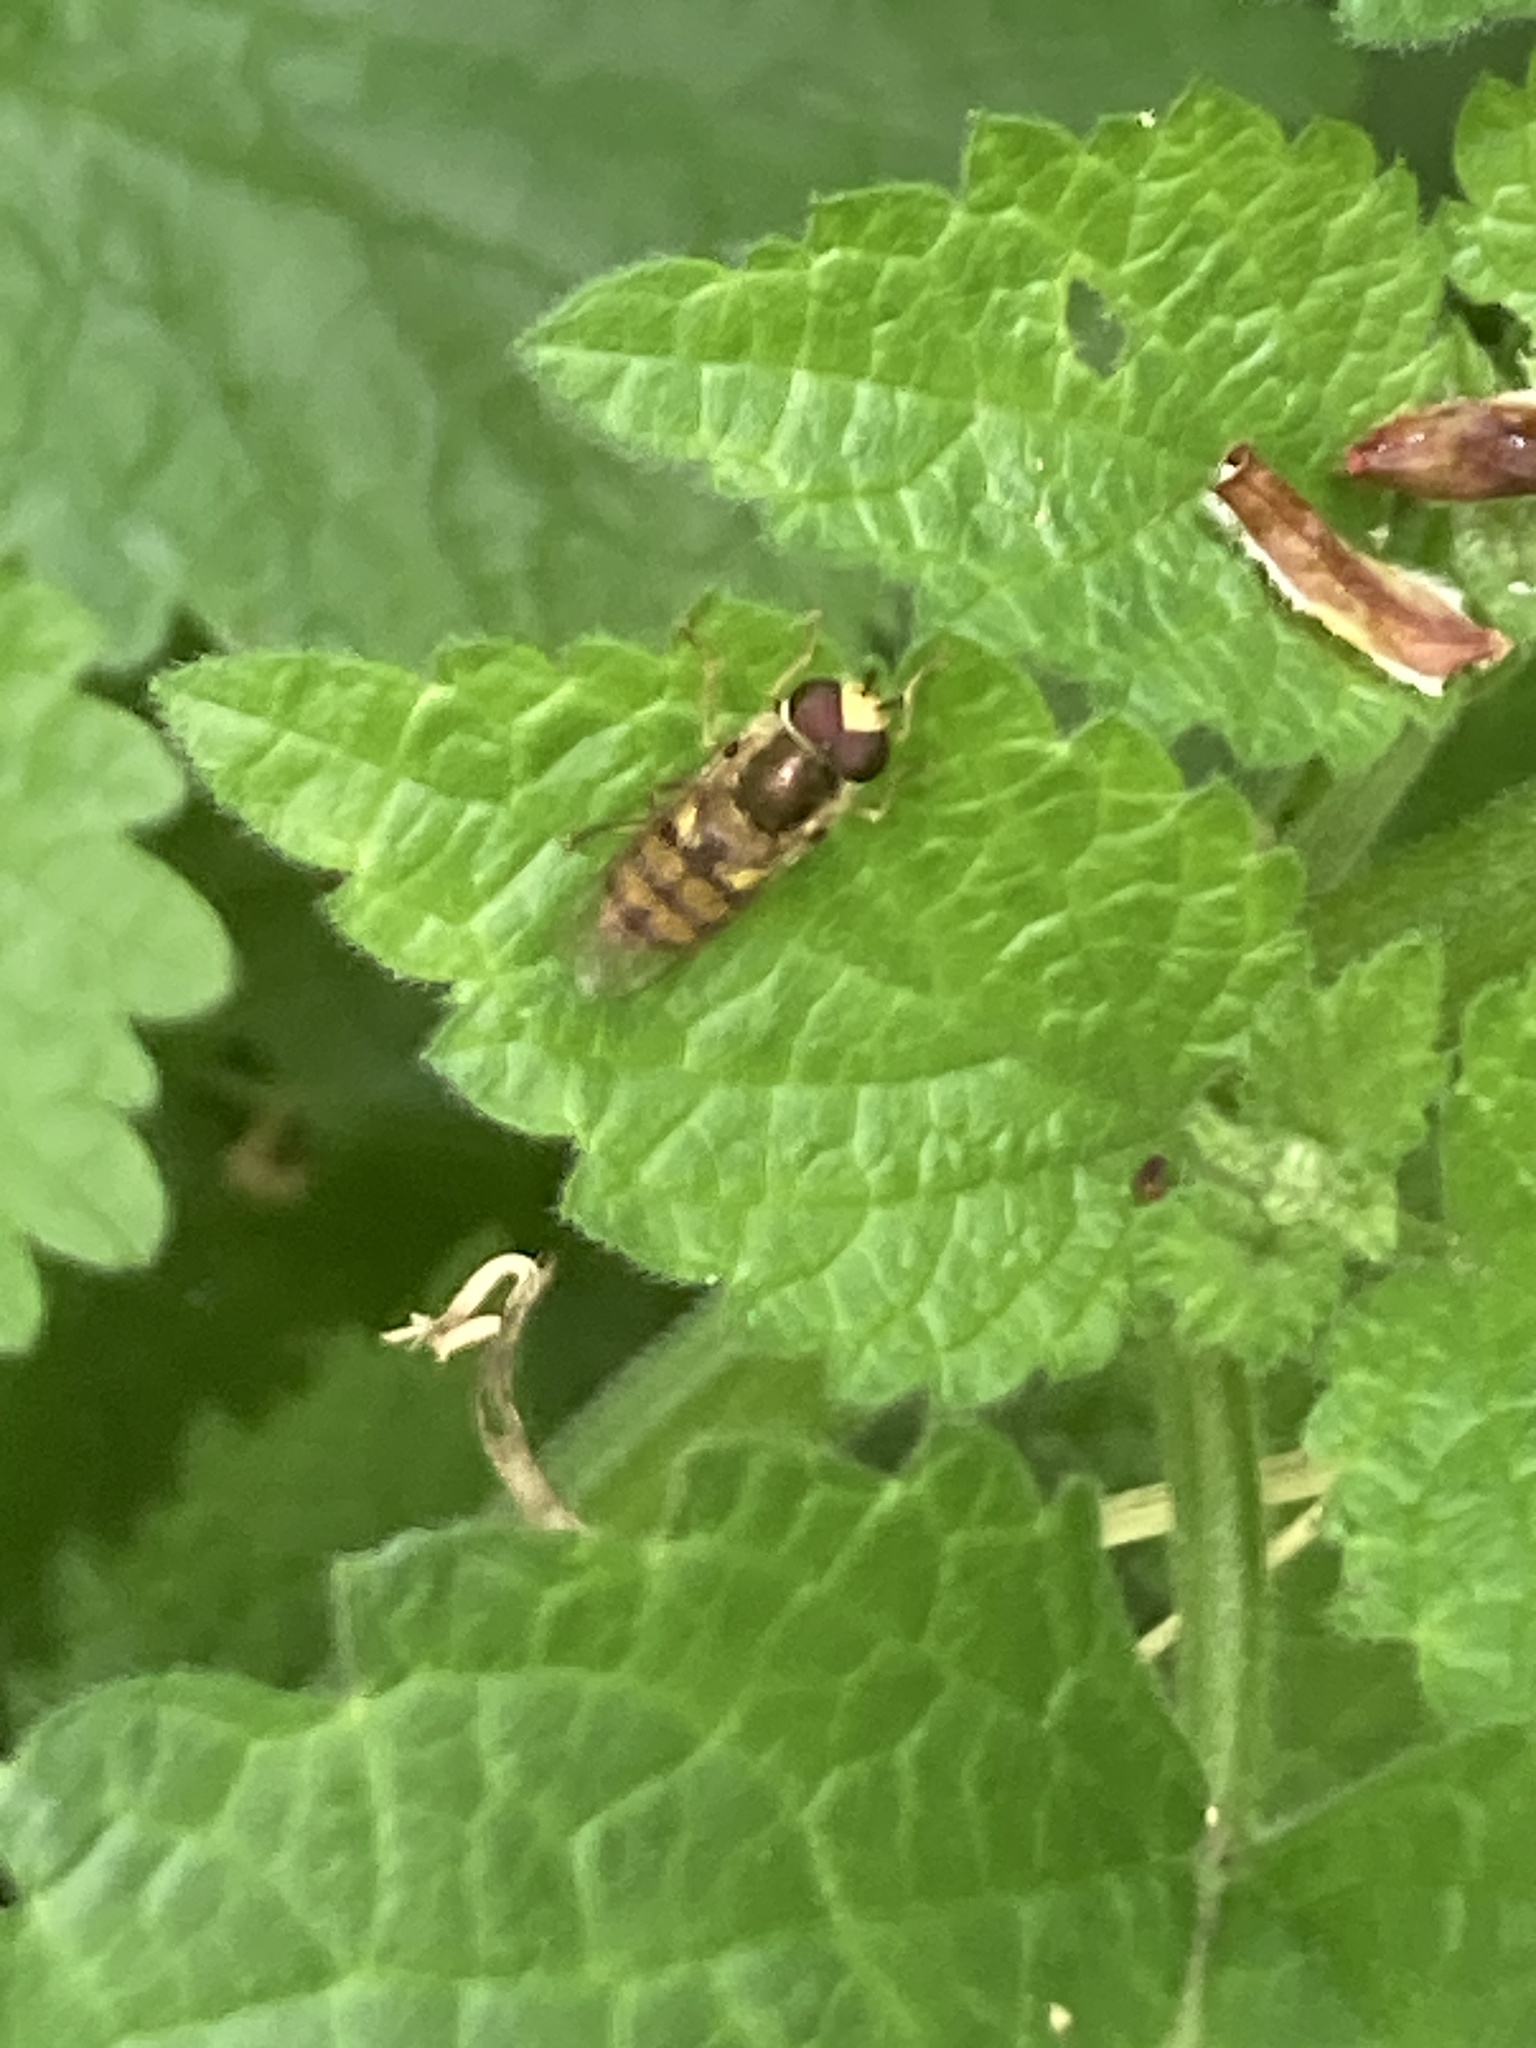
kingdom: Animalia
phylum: Arthropoda
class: Insecta
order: Diptera
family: Syrphidae
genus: Eupeodes
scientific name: Eupeodes
